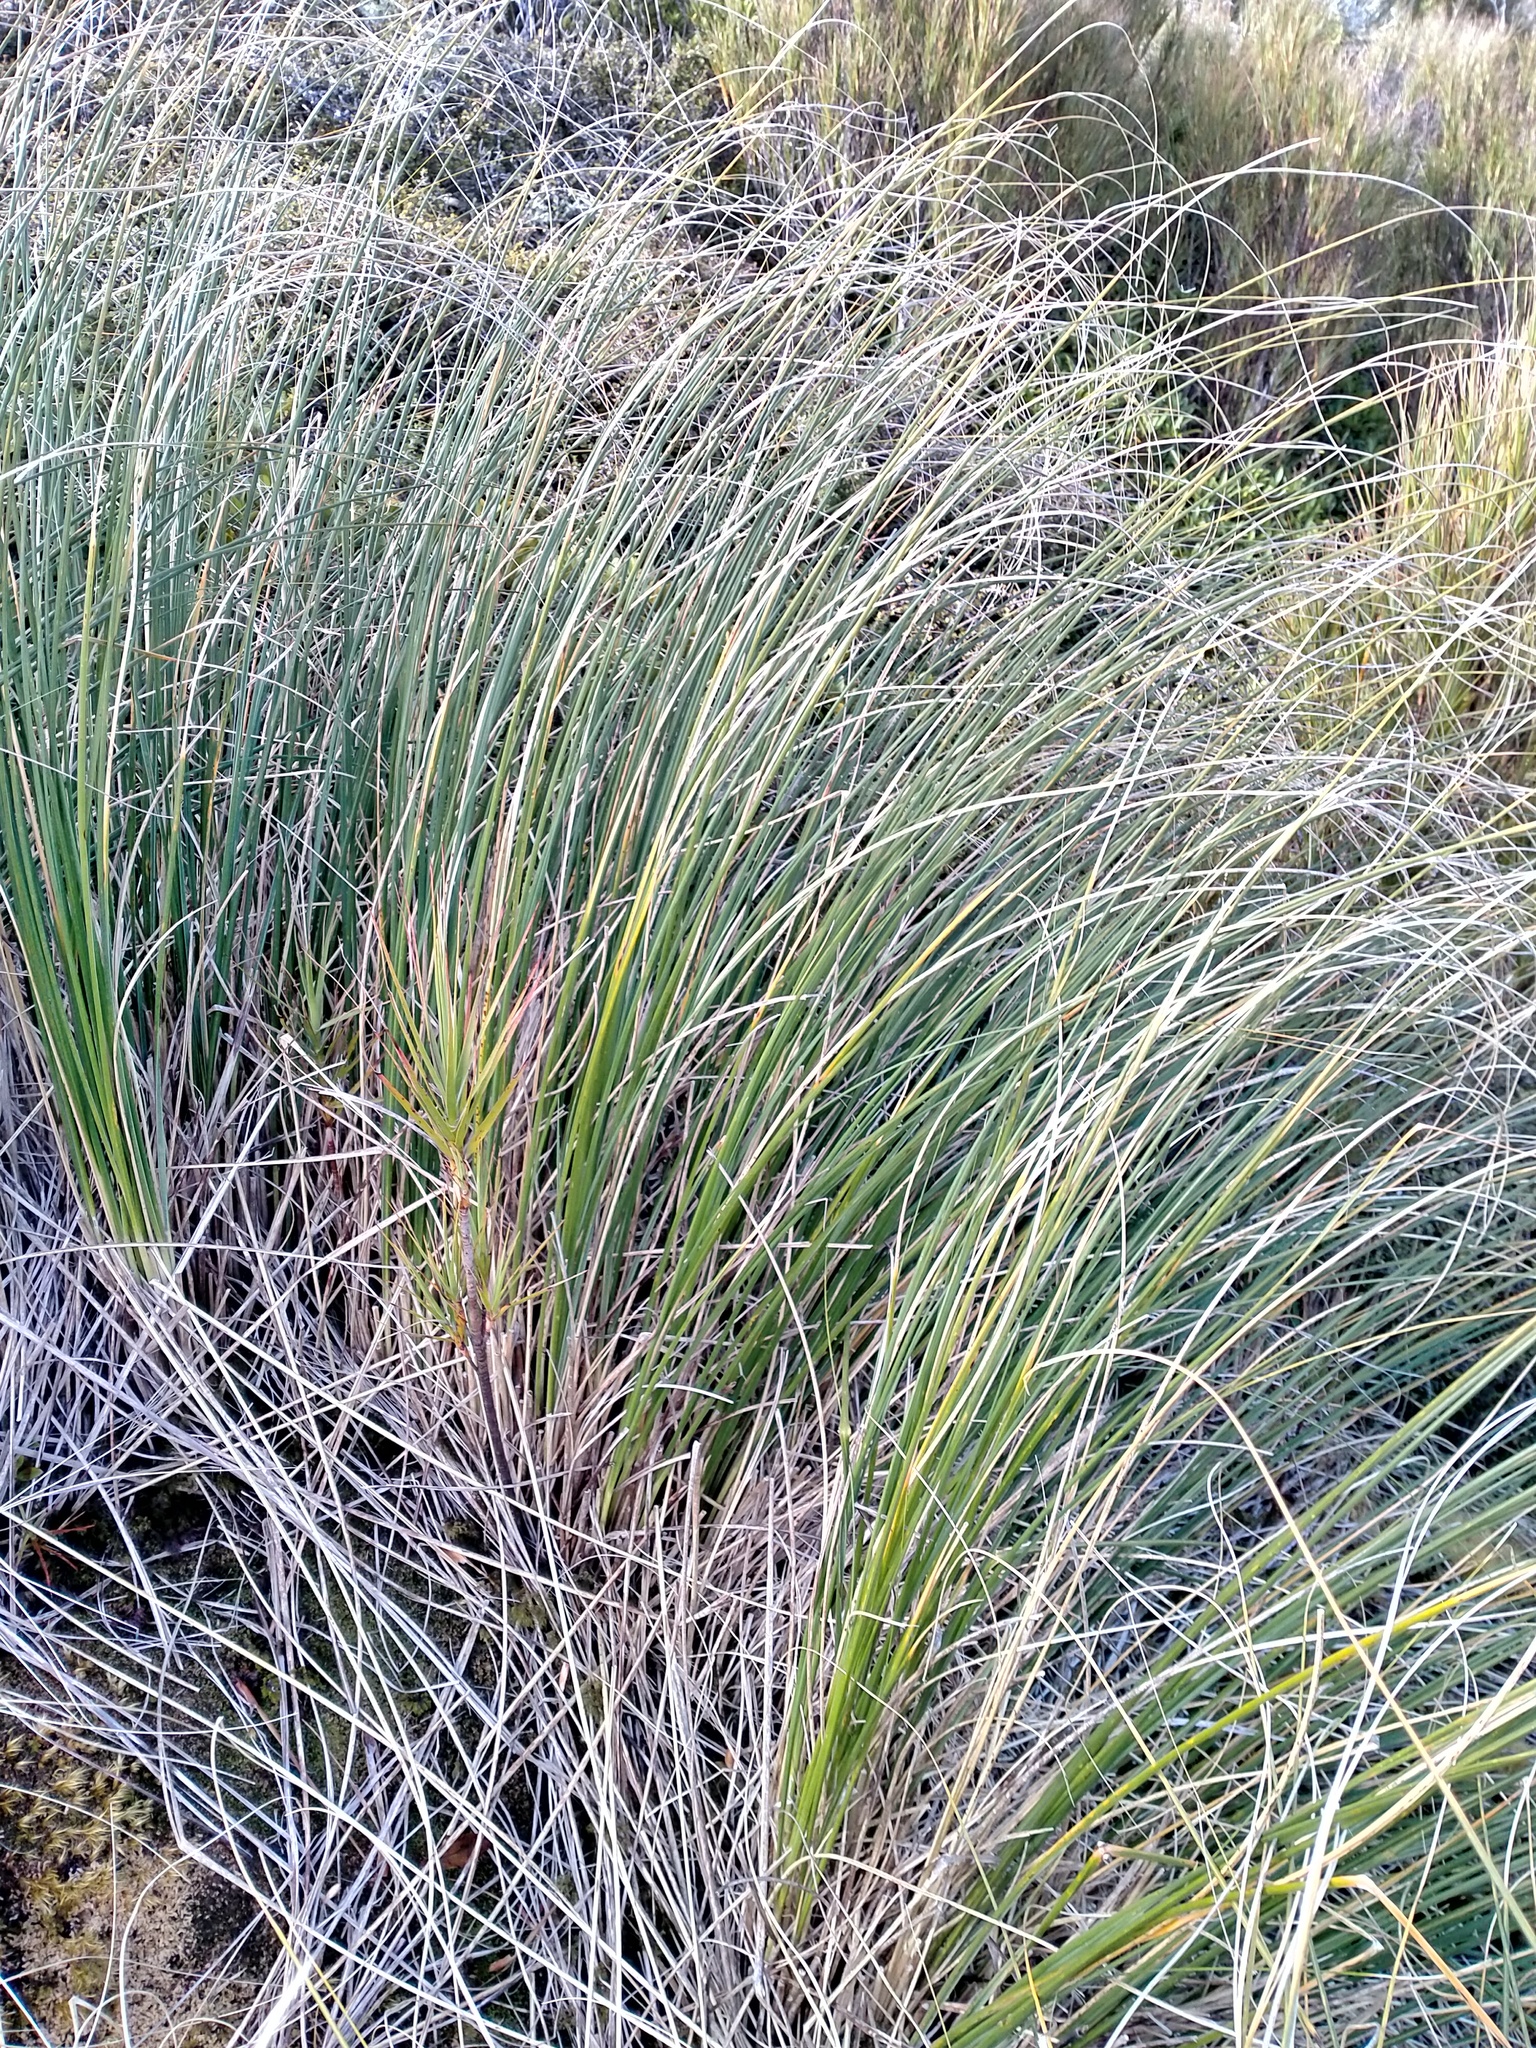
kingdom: Plantae
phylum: Tracheophyta
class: Liliopsida
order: Poales
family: Poaceae
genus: Chionochloa
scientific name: Chionochloa antarctica
